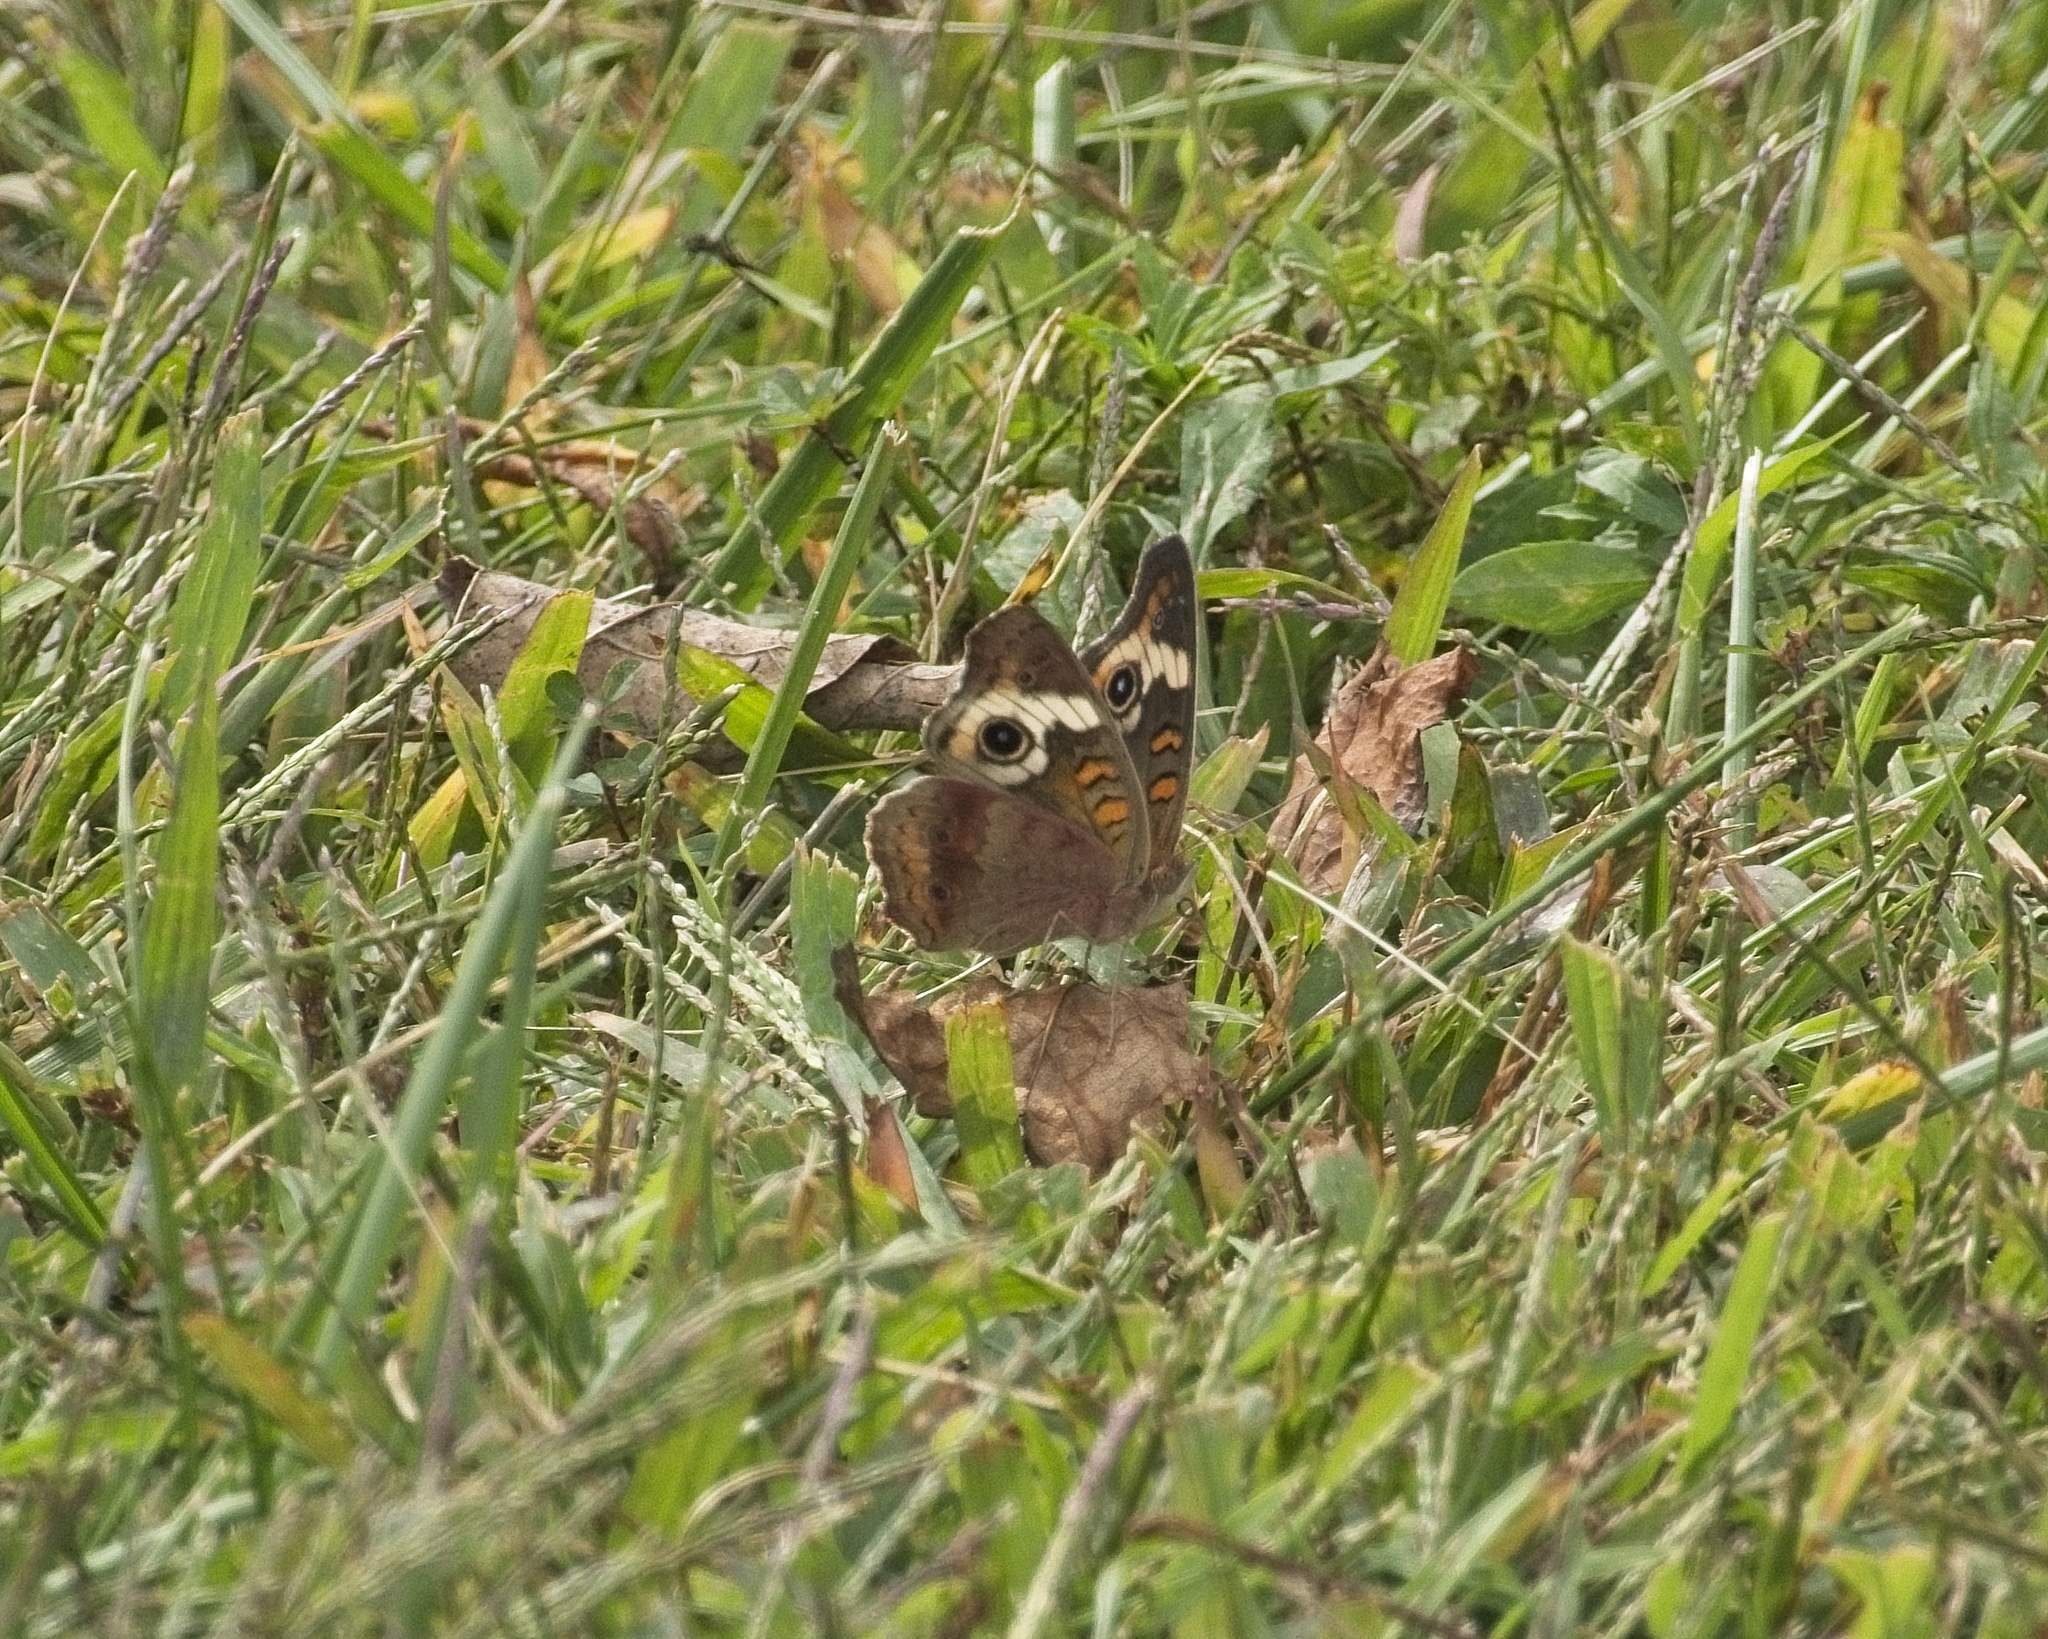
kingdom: Animalia
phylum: Arthropoda
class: Insecta
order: Lepidoptera
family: Nymphalidae
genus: Junonia
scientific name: Junonia coenia
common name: Common buckeye
